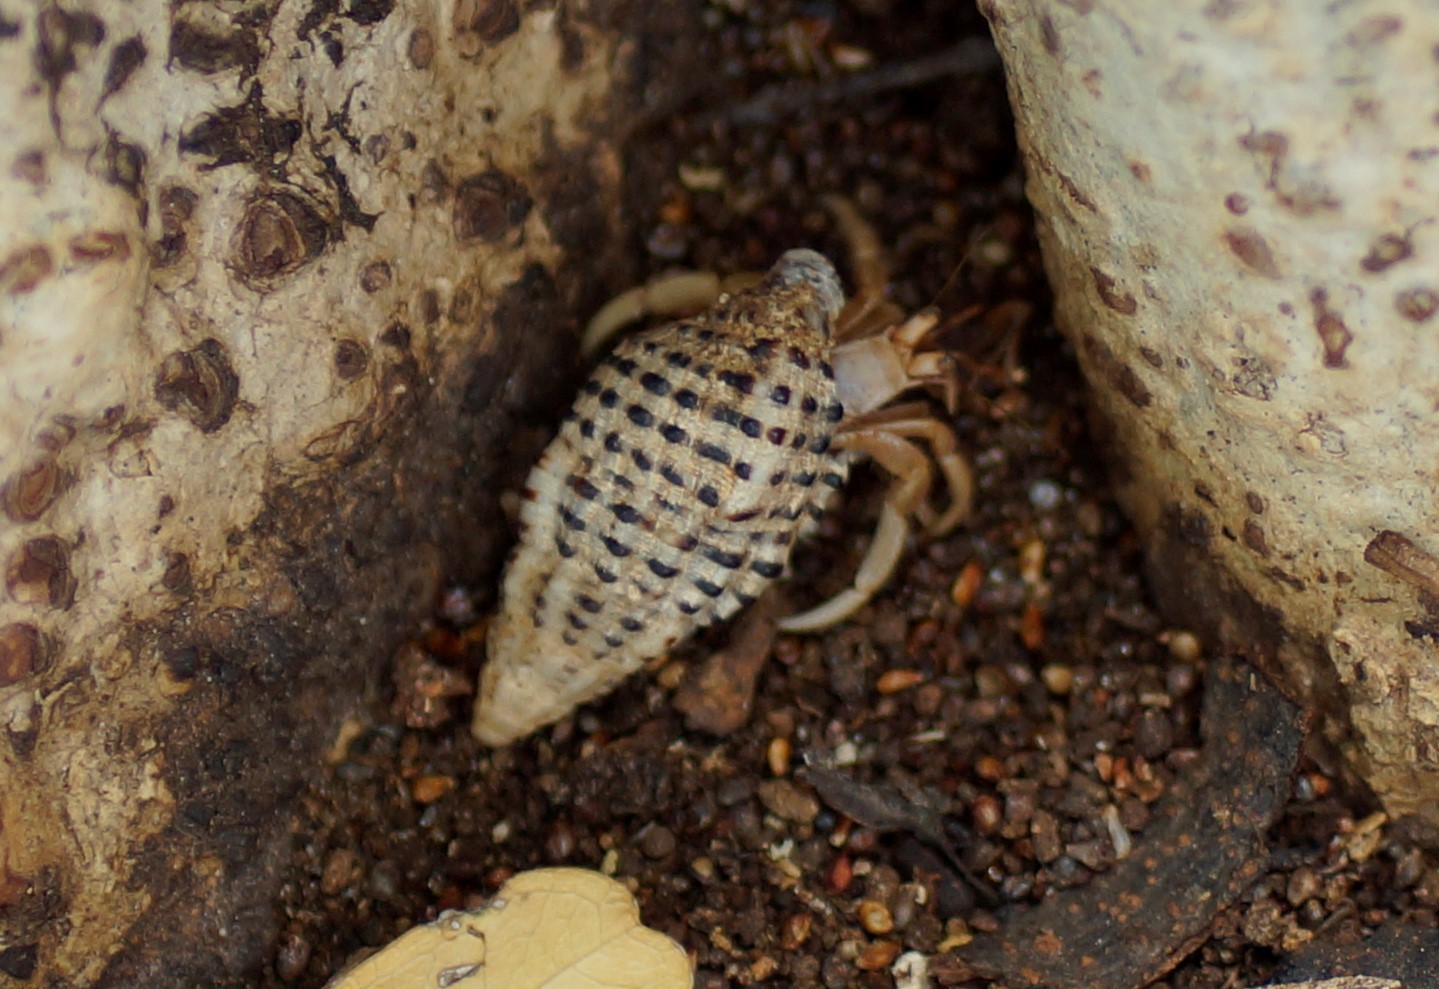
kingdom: Animalia
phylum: Arthropoda
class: Malacostraca
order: Decapoda
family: Coenobitidae
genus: Coenobita
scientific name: Coenobita variabilis
